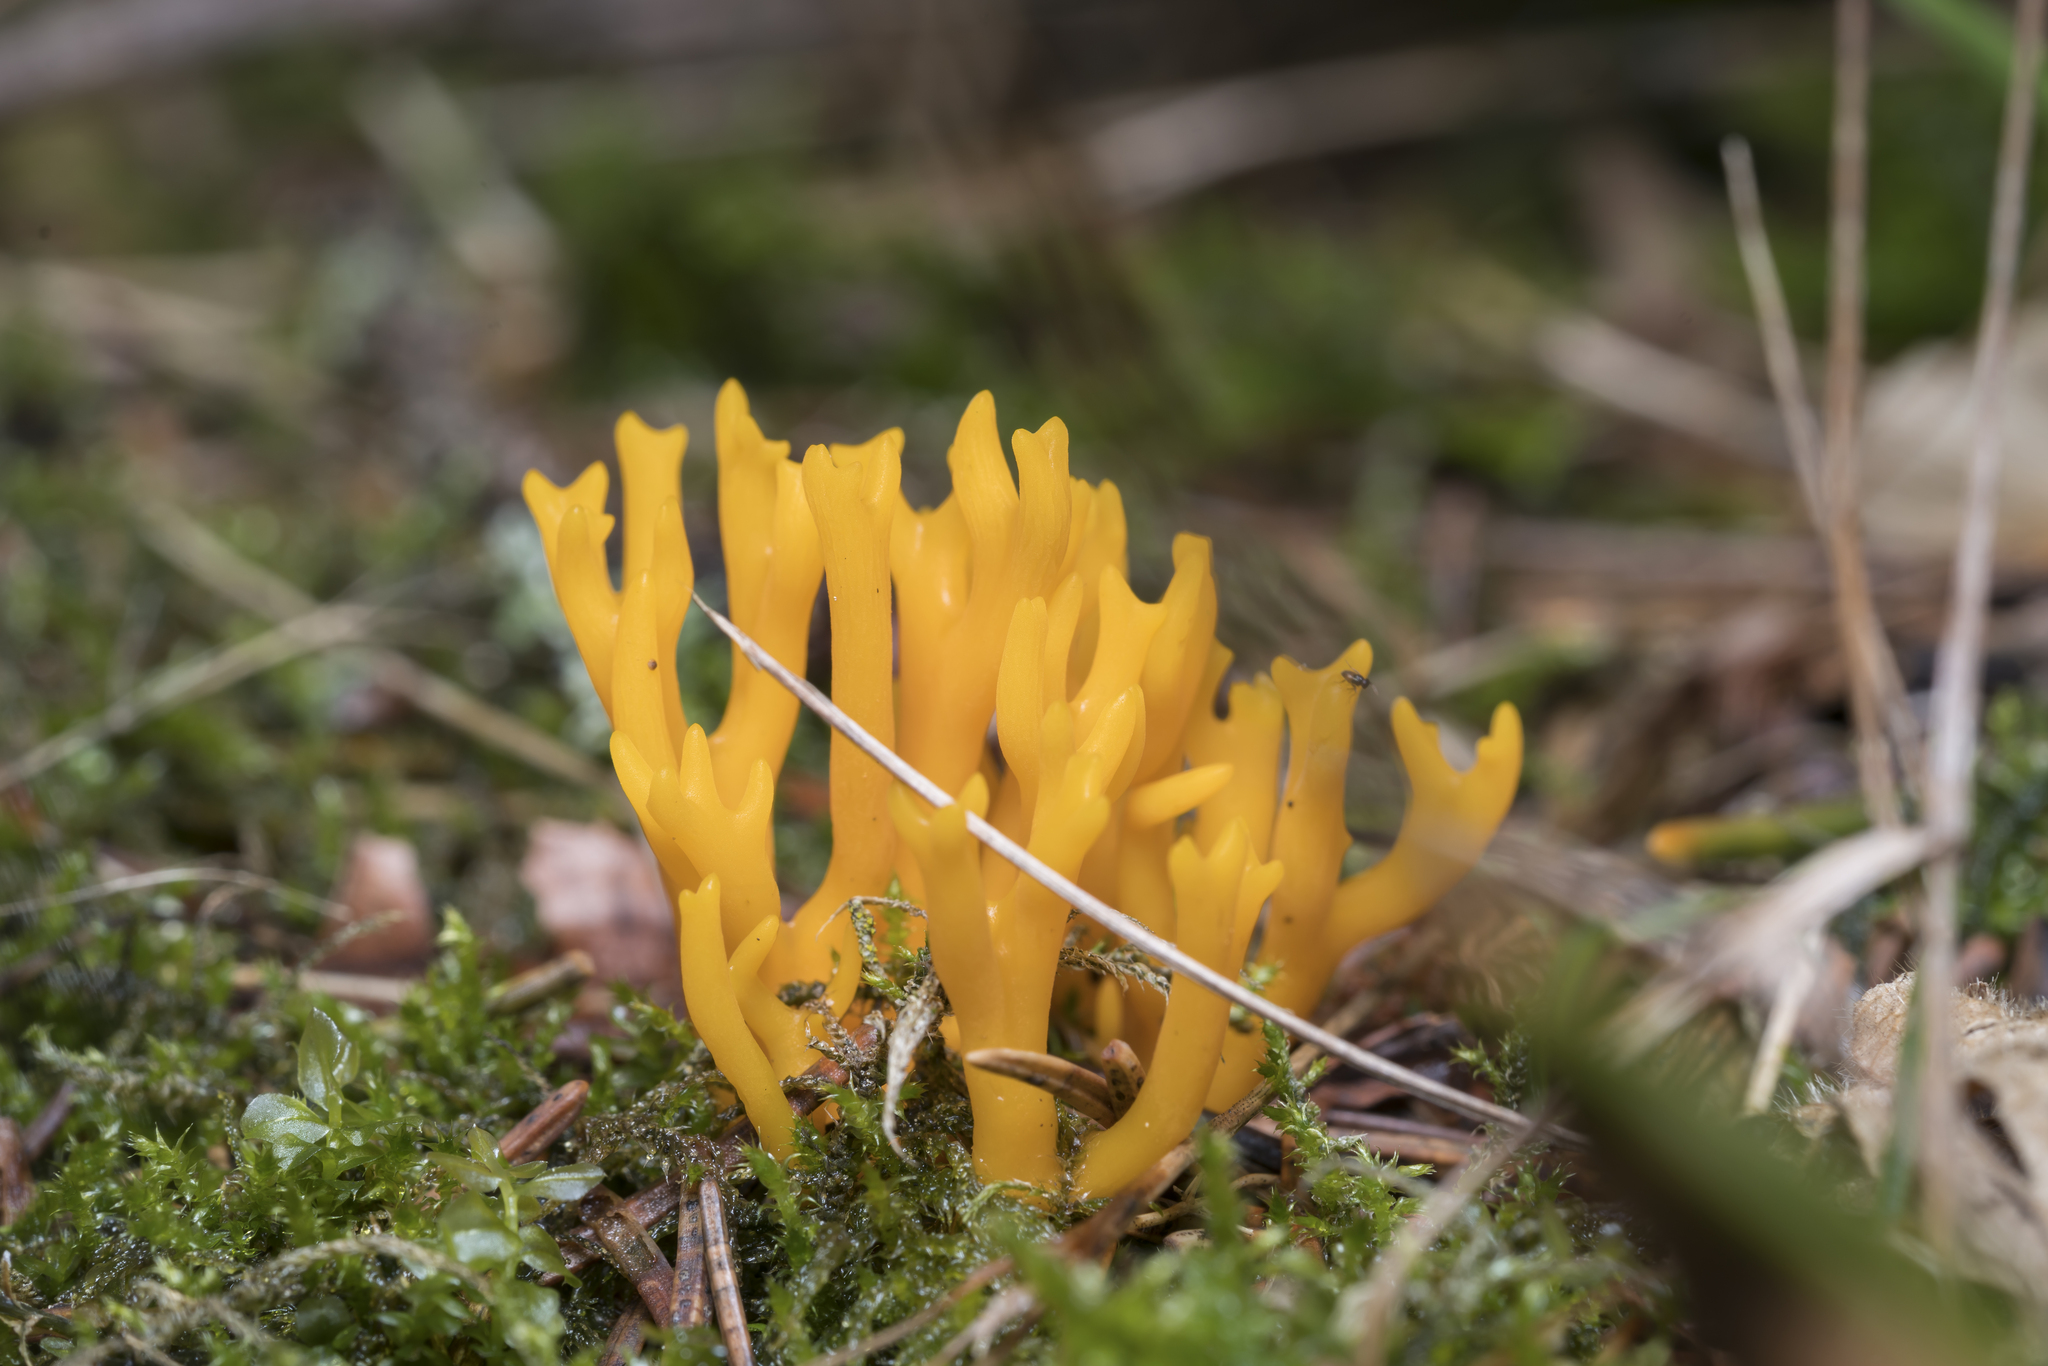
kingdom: Fungi
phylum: Basidiomycota
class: Dacrymycetes
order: Dacrymycetales
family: Dacrymycetaceae
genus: Calocera
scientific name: Calocera viscosa
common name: Yellow stagshorn
